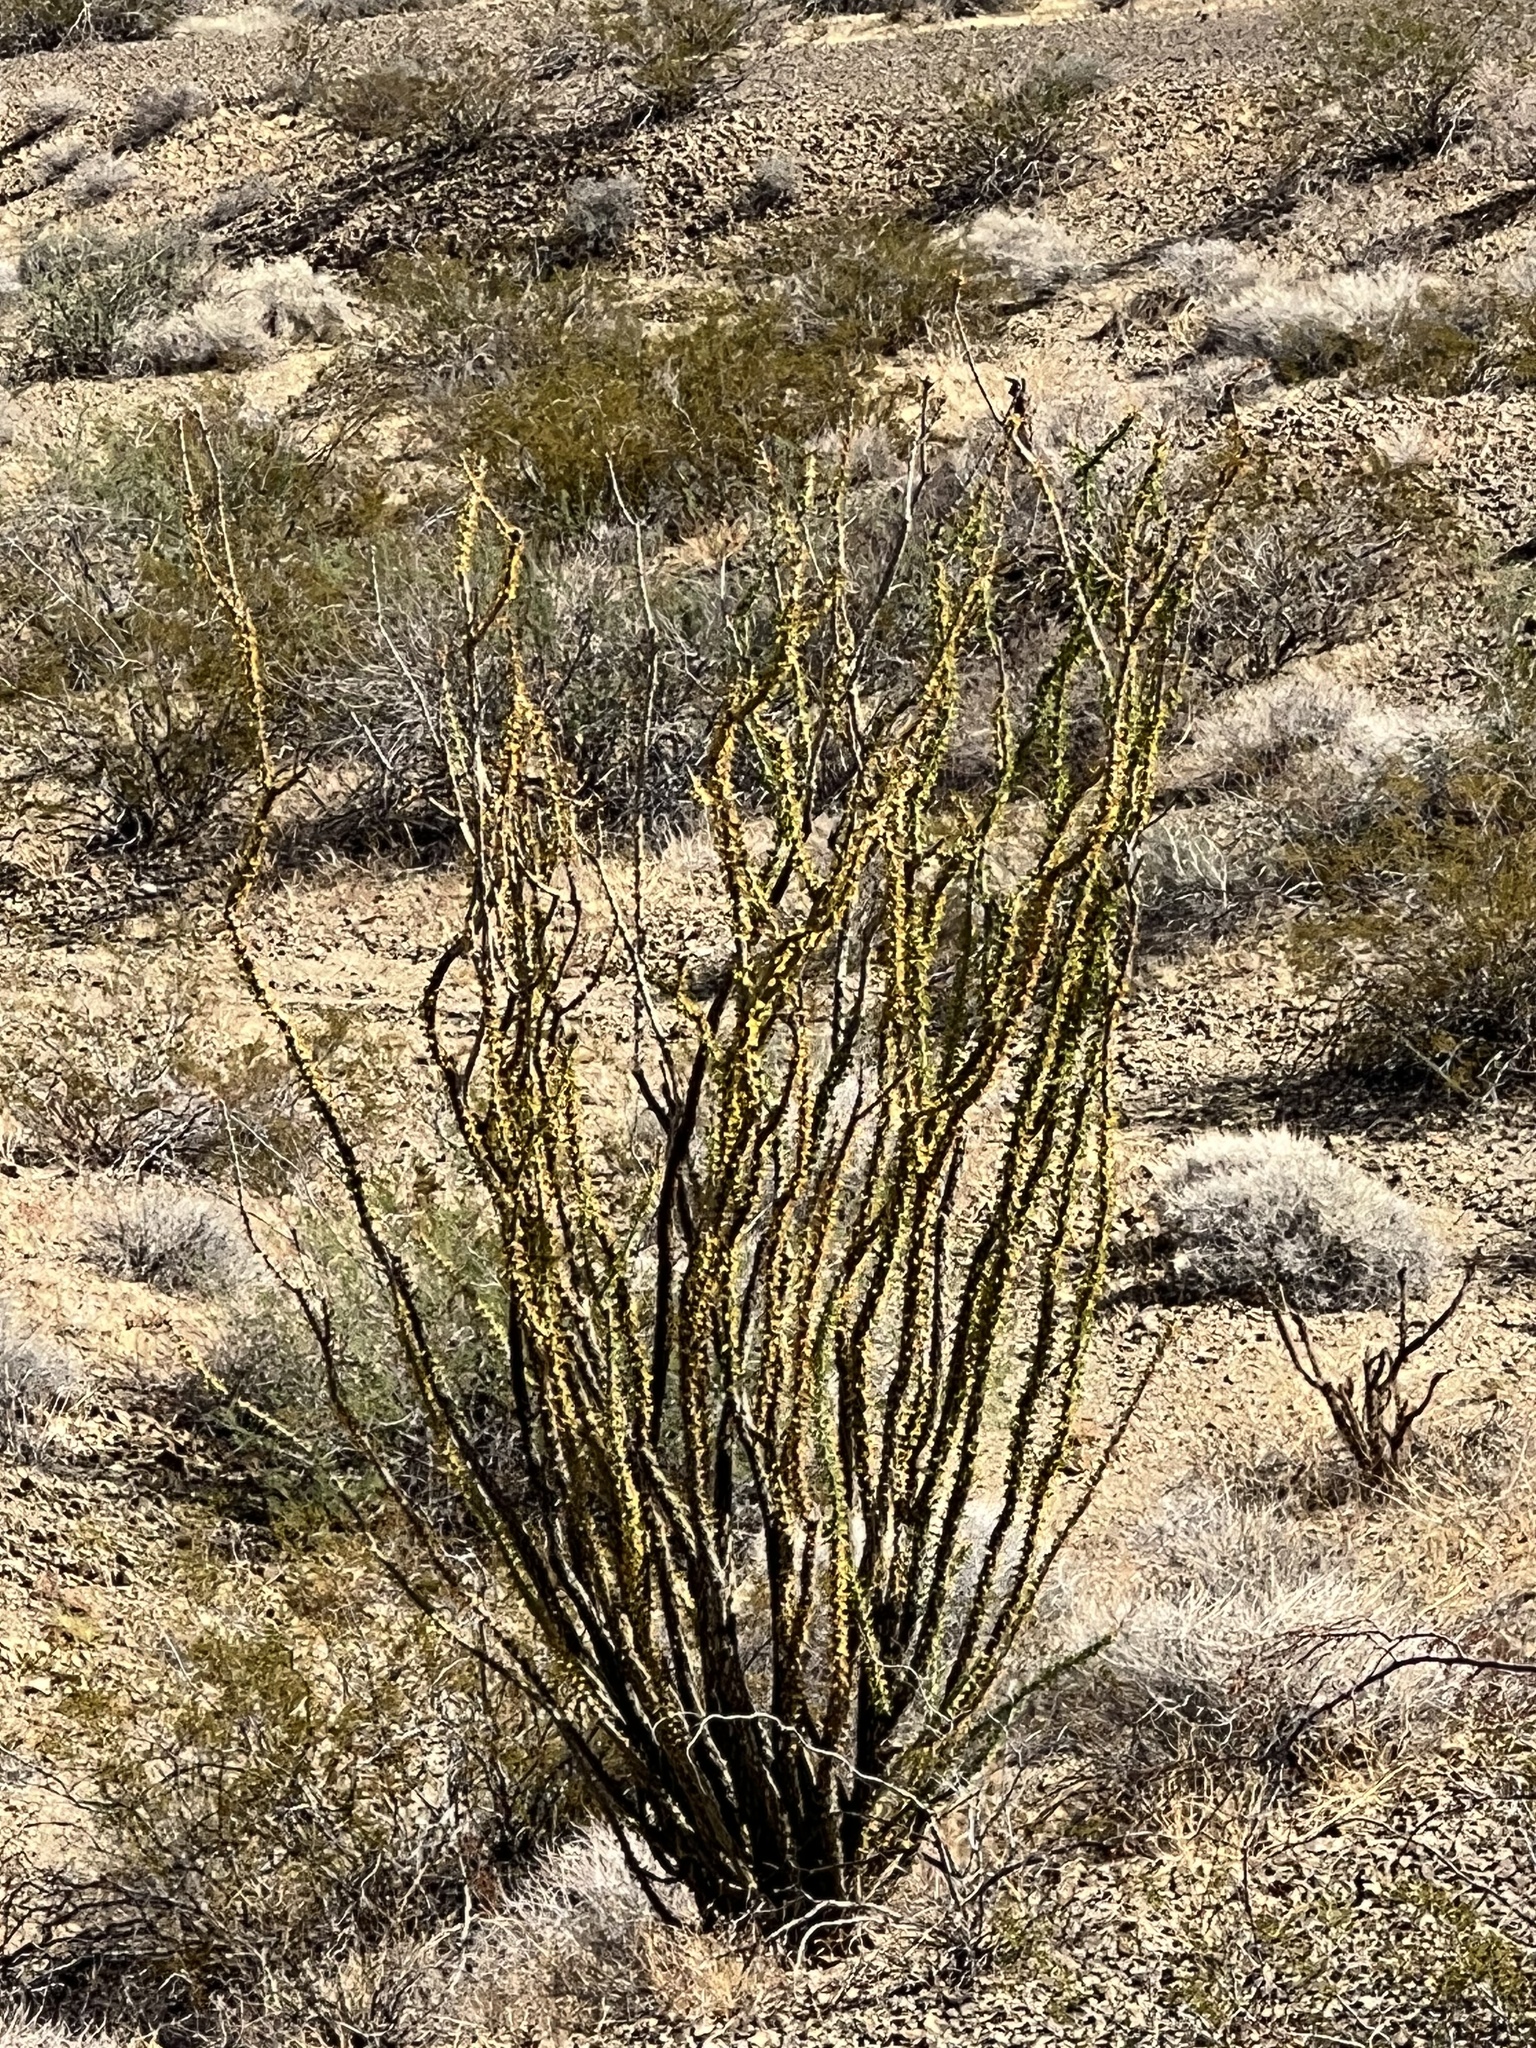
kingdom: Plantae
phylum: Tracheophyta
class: Magnoliopsida
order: Ericales
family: Fouquieriaceae
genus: Fouquieria
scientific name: Fouquieria splendens
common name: Vine-cactus
